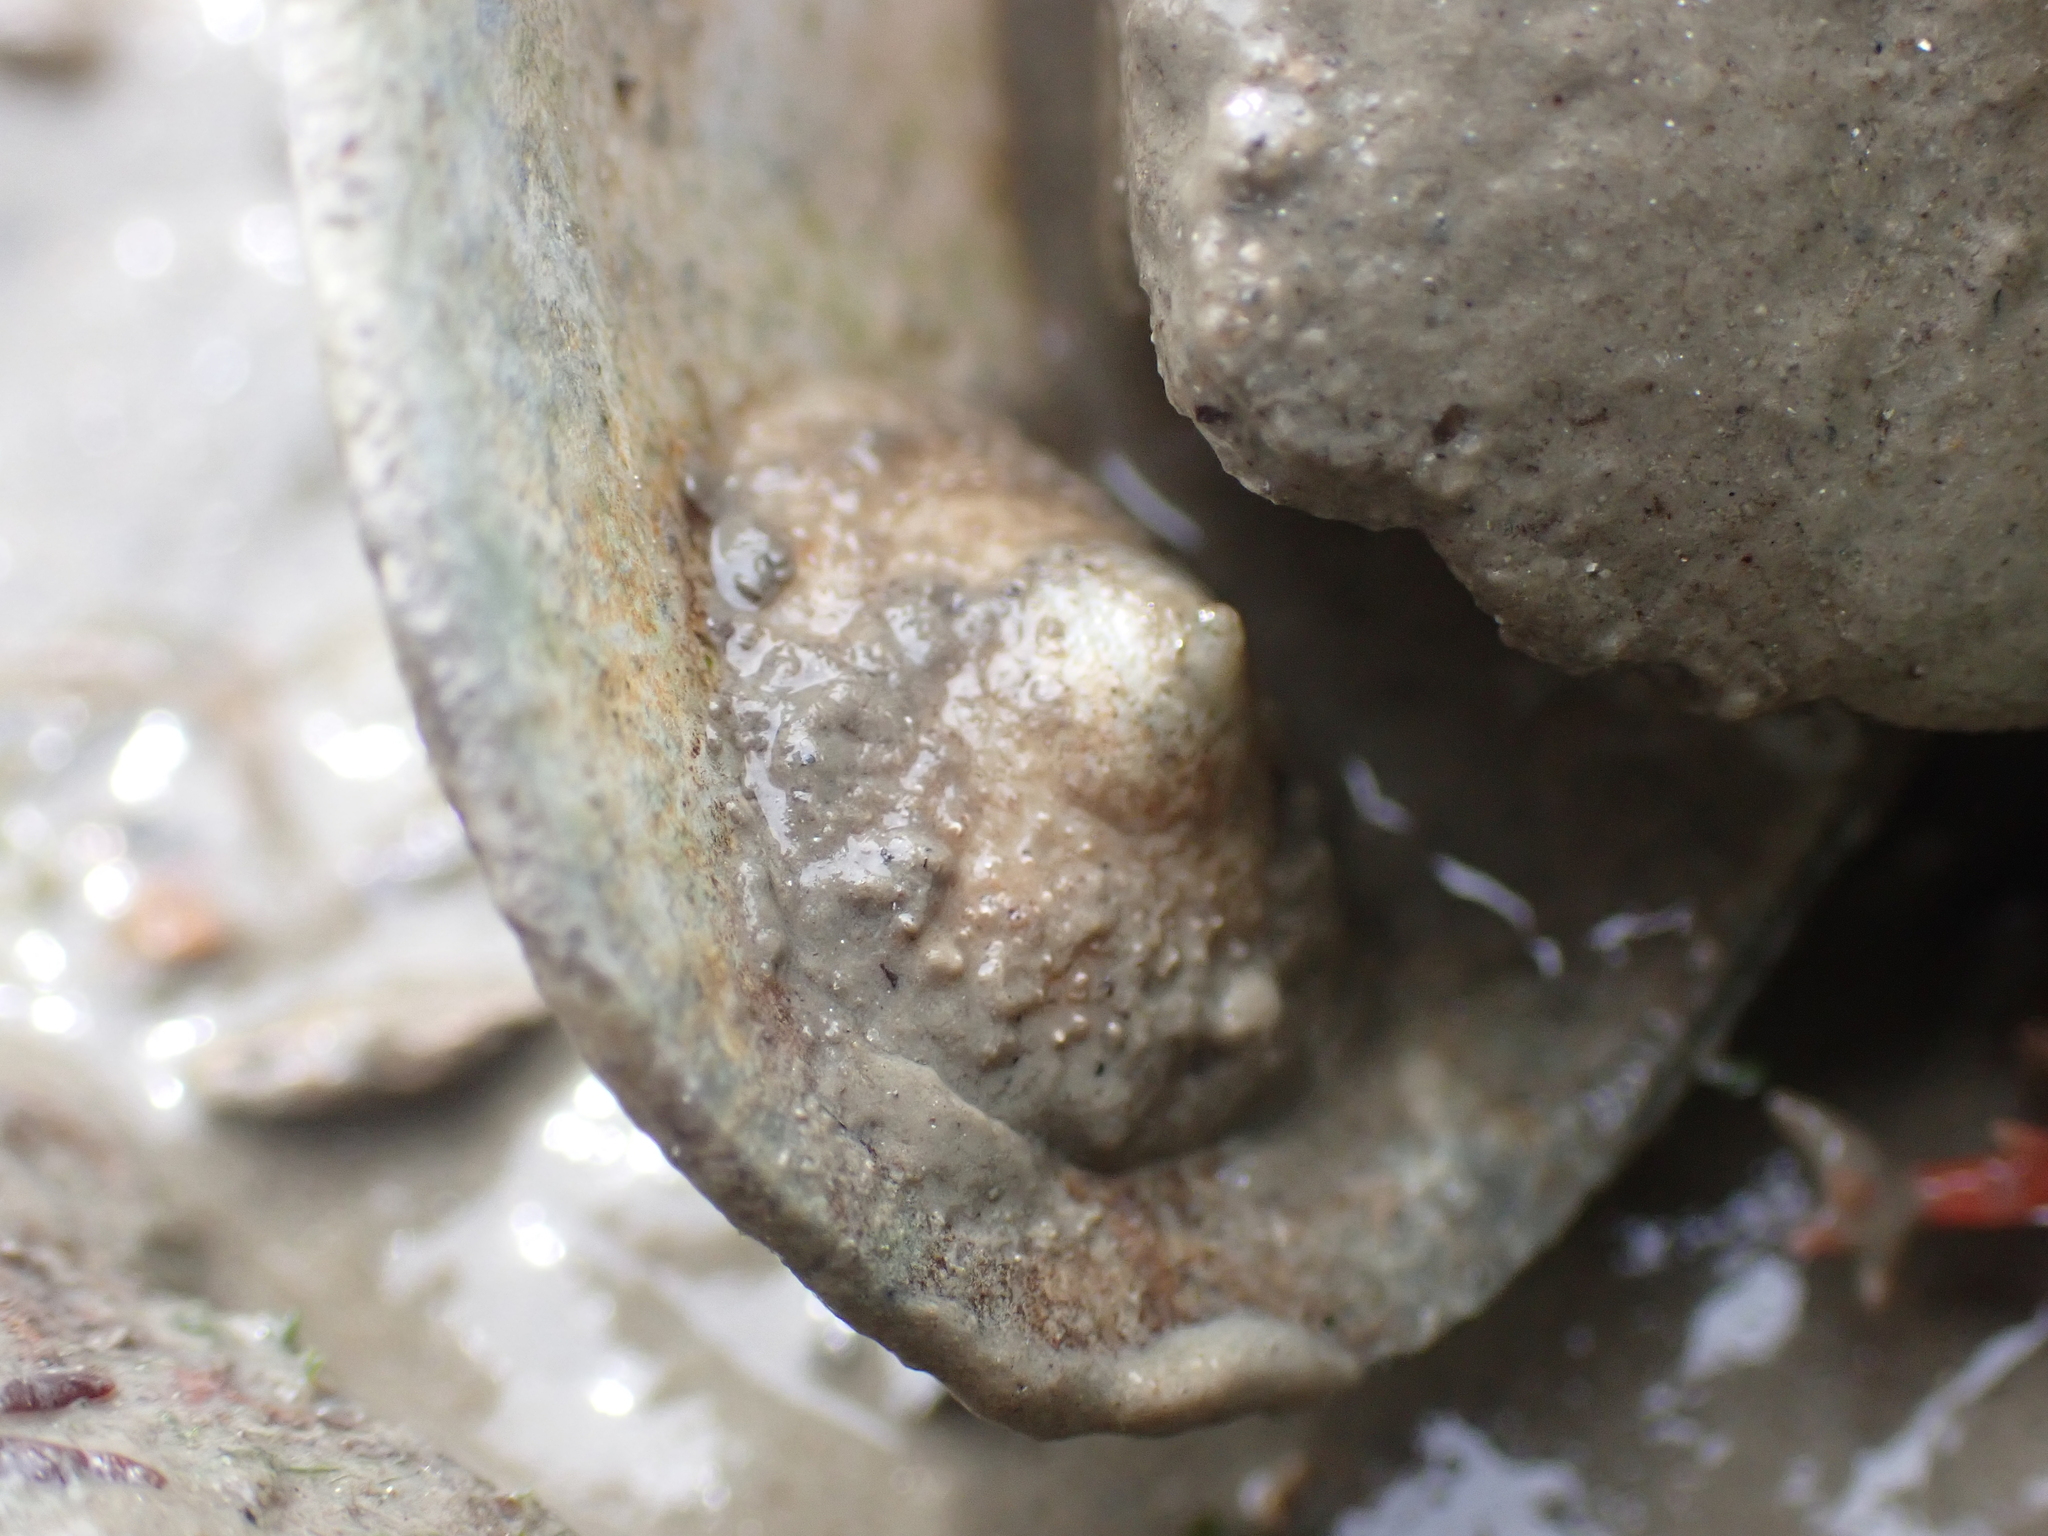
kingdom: Animalia
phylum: Mollusca
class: Gastropoda
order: Littorinimorpha
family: Calyptraeidae
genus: Calyptraea
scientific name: Calyptraea chinensis
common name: Chinaman's hat
